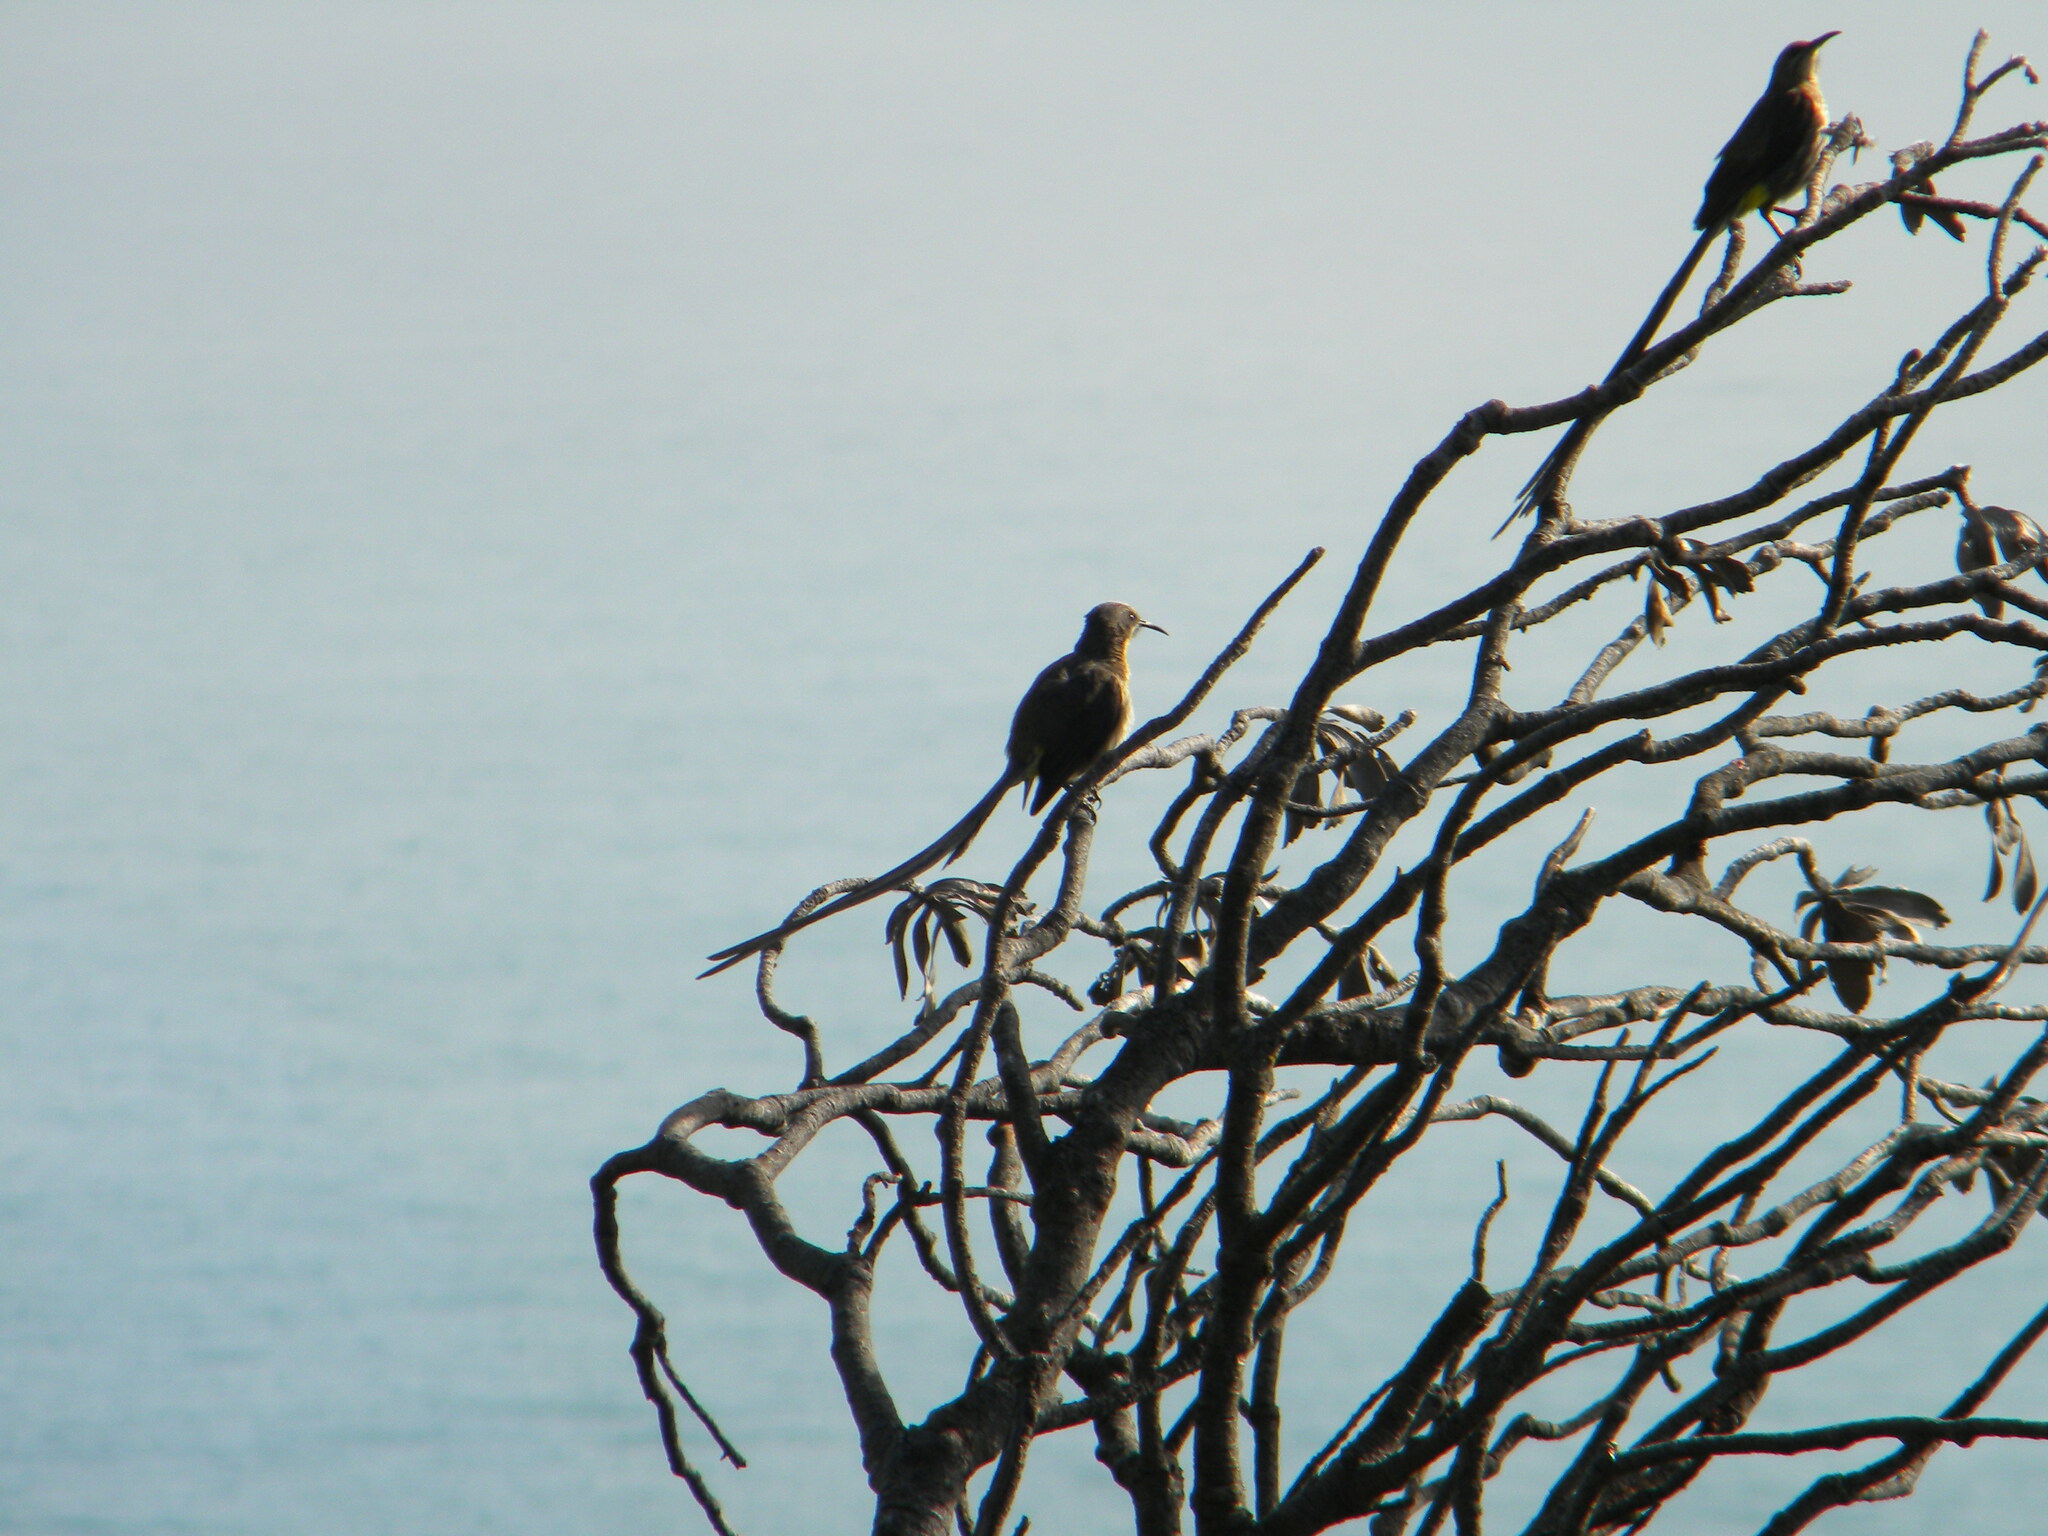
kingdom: Animalia
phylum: Chordata
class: Aves
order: Passeriformes
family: Promeropidae
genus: Promerops
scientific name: Promerops cafer
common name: Cape sugarbird
